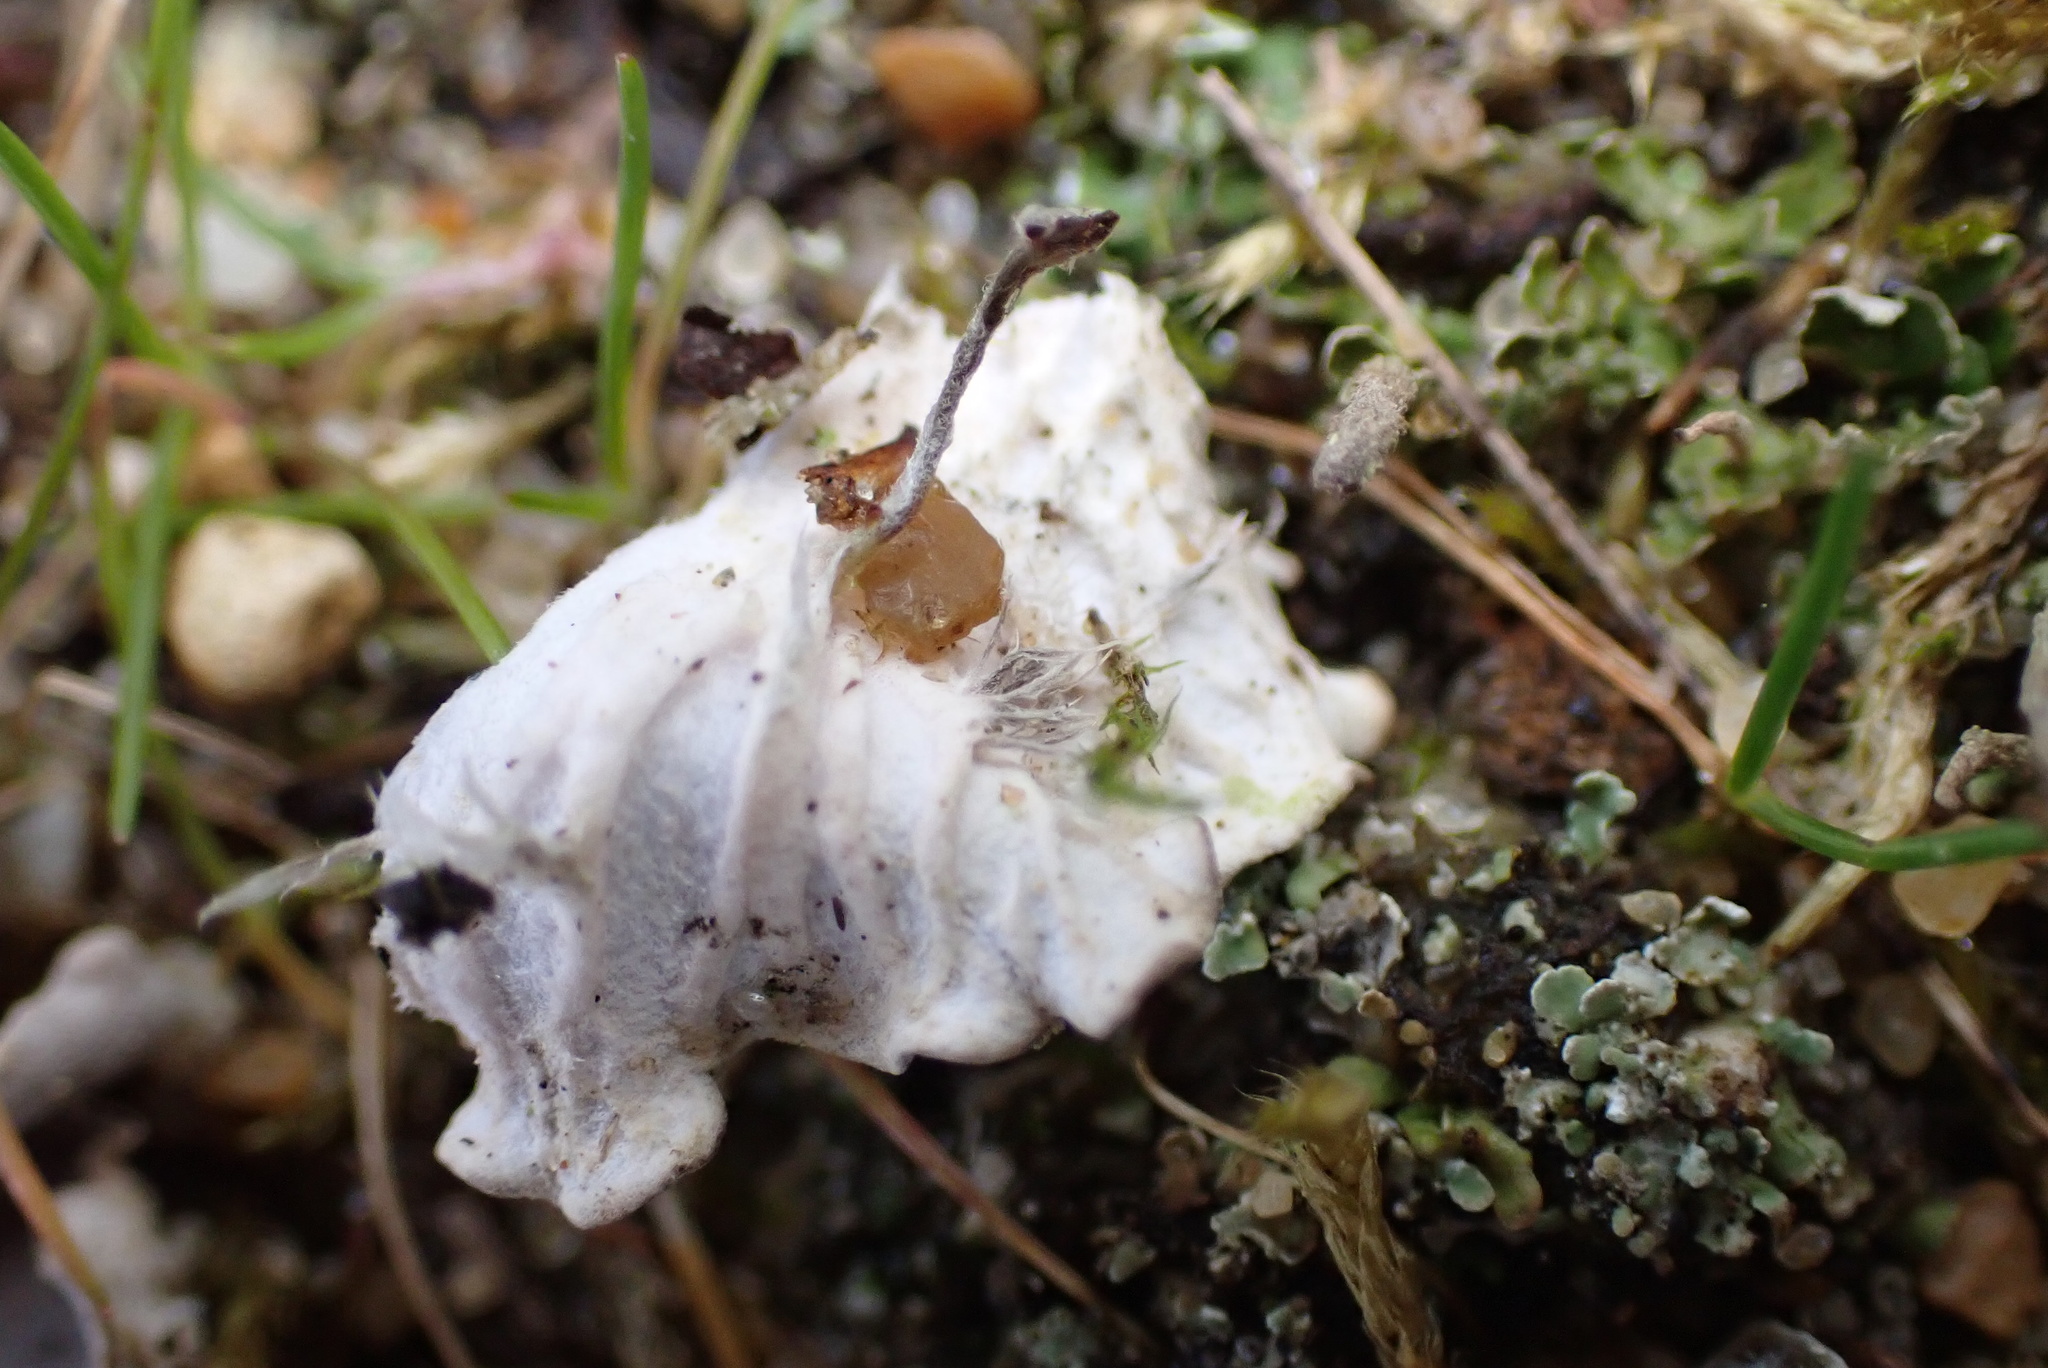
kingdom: Fungi
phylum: Ascomycota
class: Lecanoromycetes
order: Peltigerales
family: Peltigeraceae
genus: Peltigera
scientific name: Peltigera rufescens
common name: Field dog lichen
